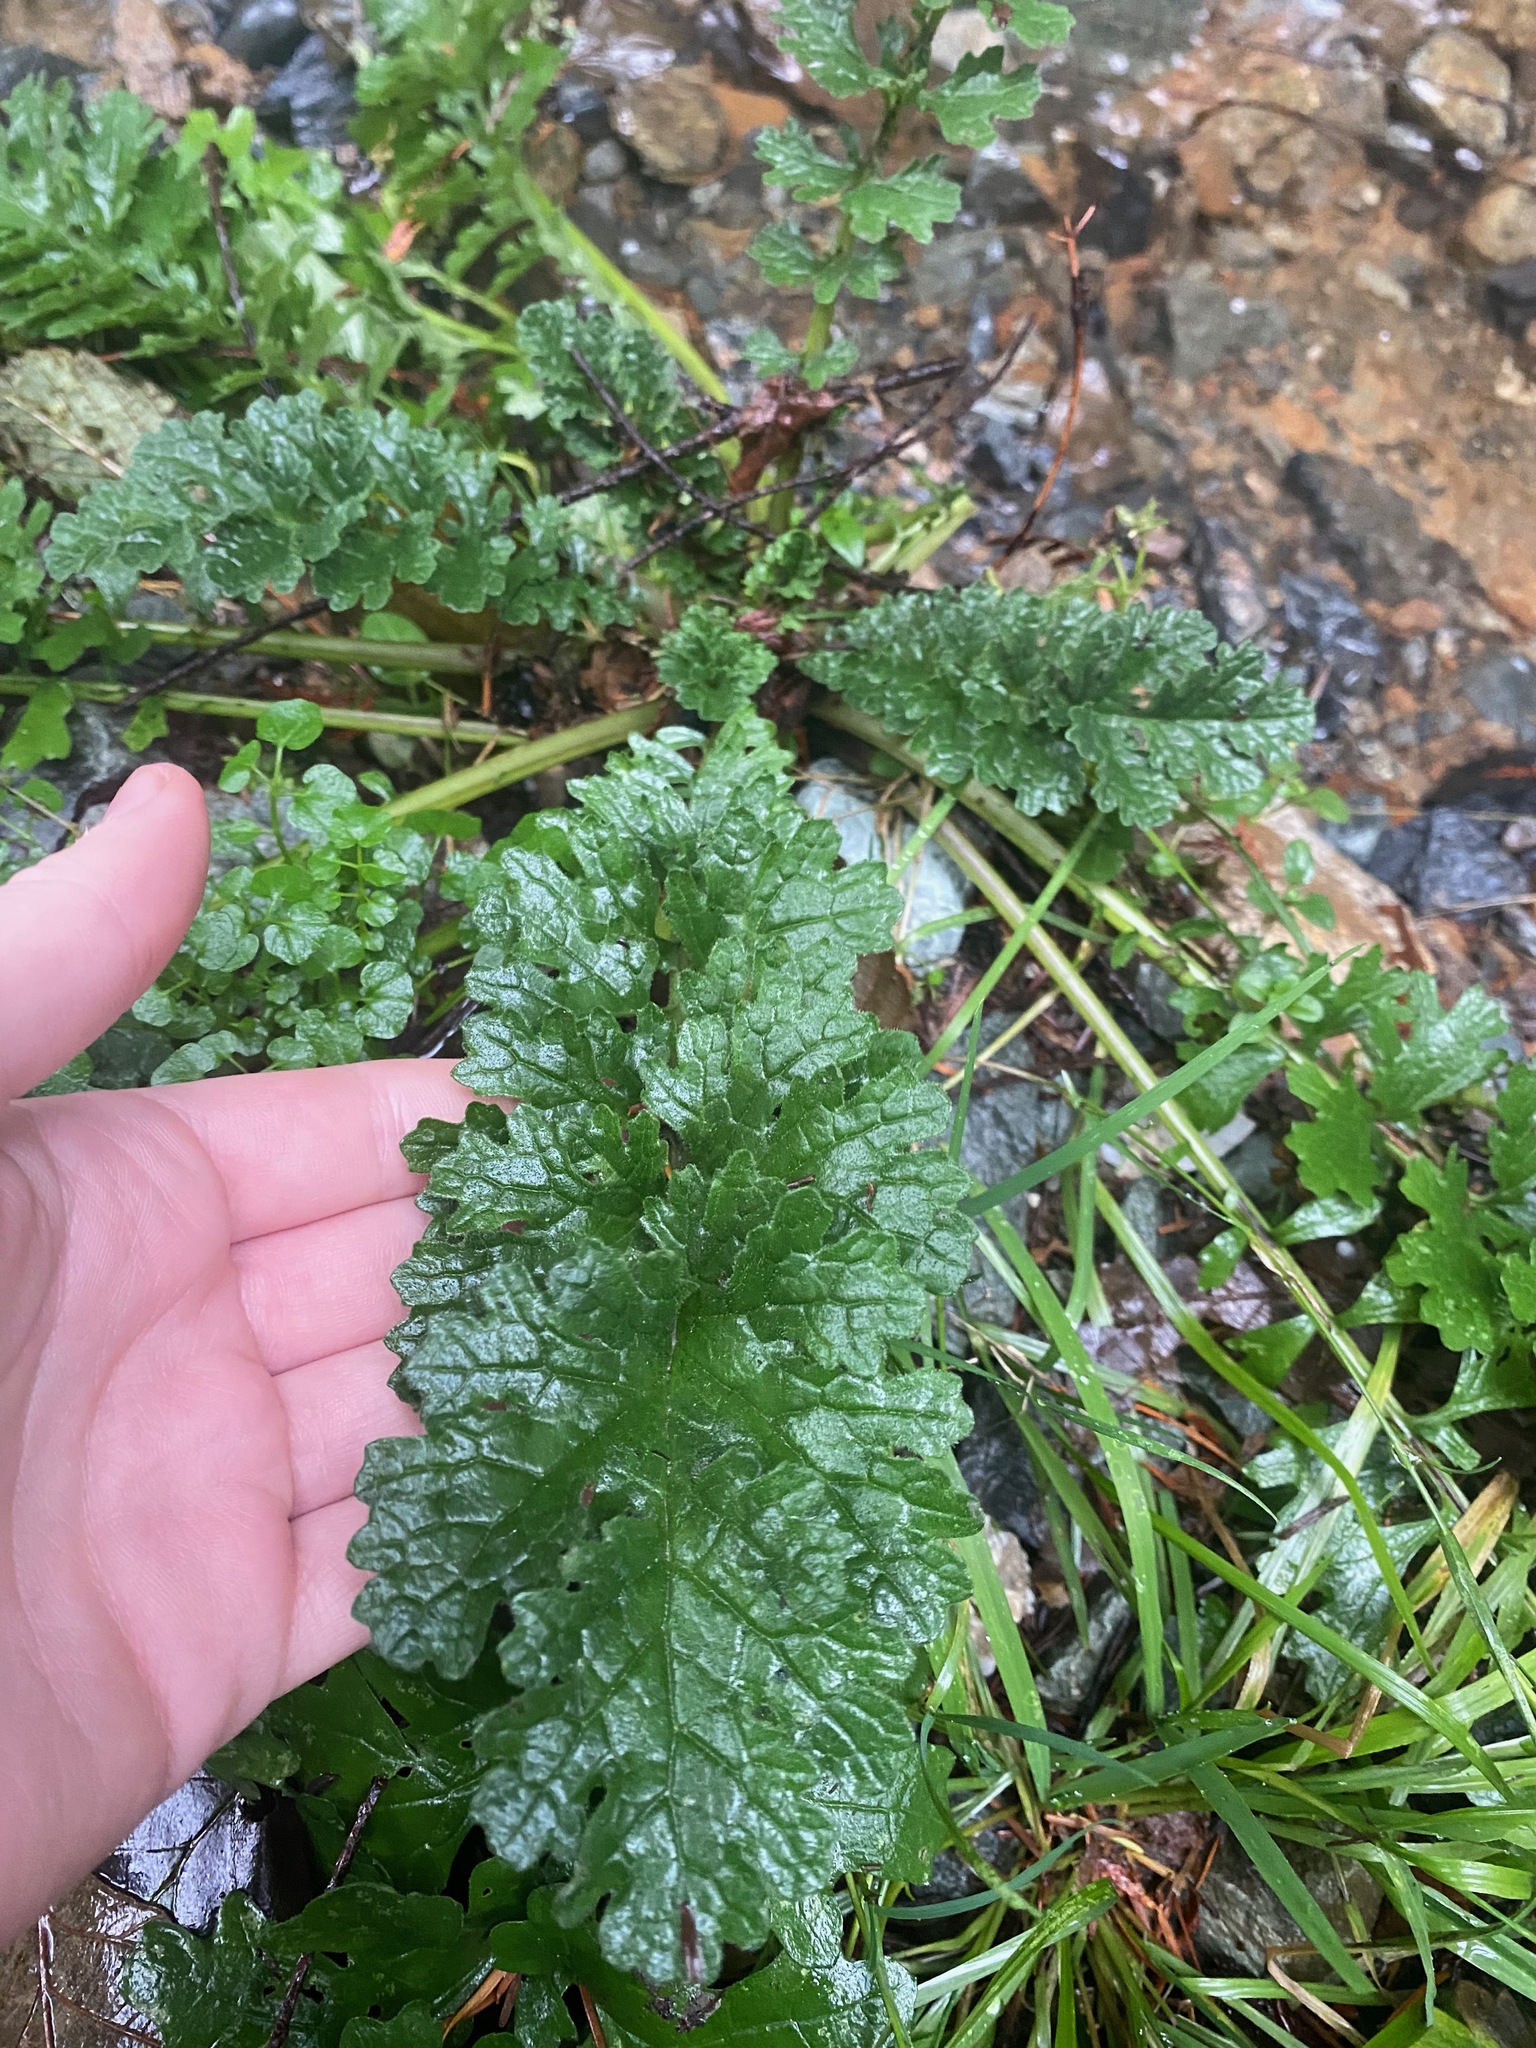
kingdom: Plantae
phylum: Tracheophyta
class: Magnoliopsida
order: Asterales
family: Asteraceae
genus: Jacobaea
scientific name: Jacobaea vulgaris
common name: Stinking willie
